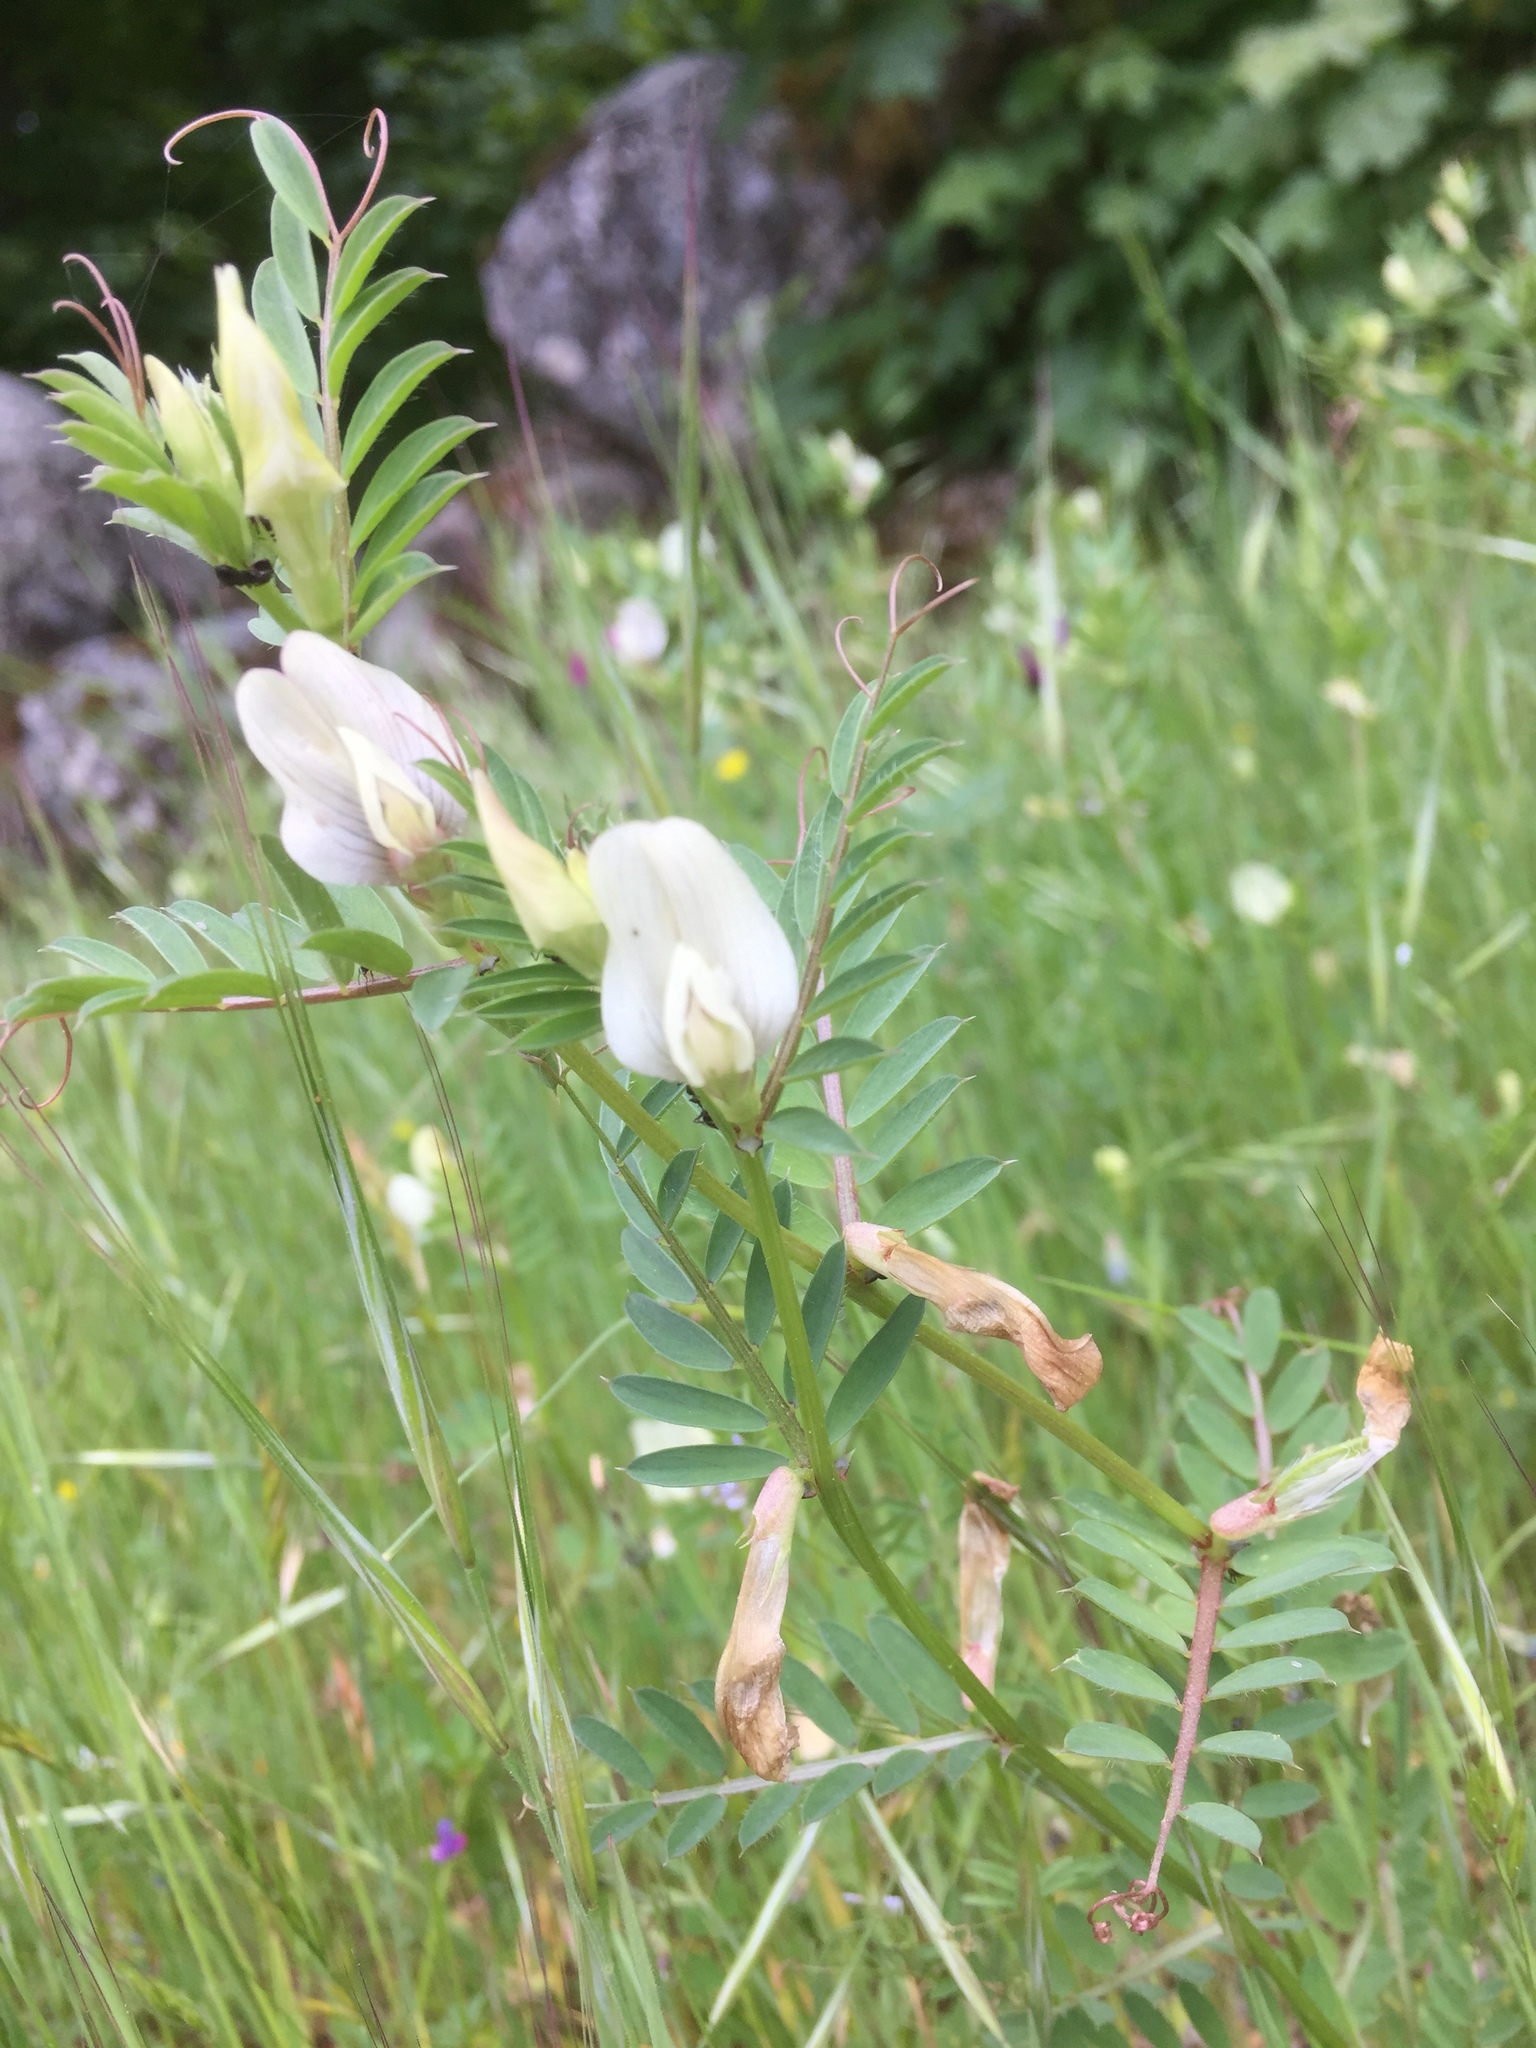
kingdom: Plantae
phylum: Tracheophyta
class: Magnoliopsida
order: Fabales
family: Fabaceae
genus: Vicia
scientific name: Vicia lutea
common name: Smooth yellow vetch
